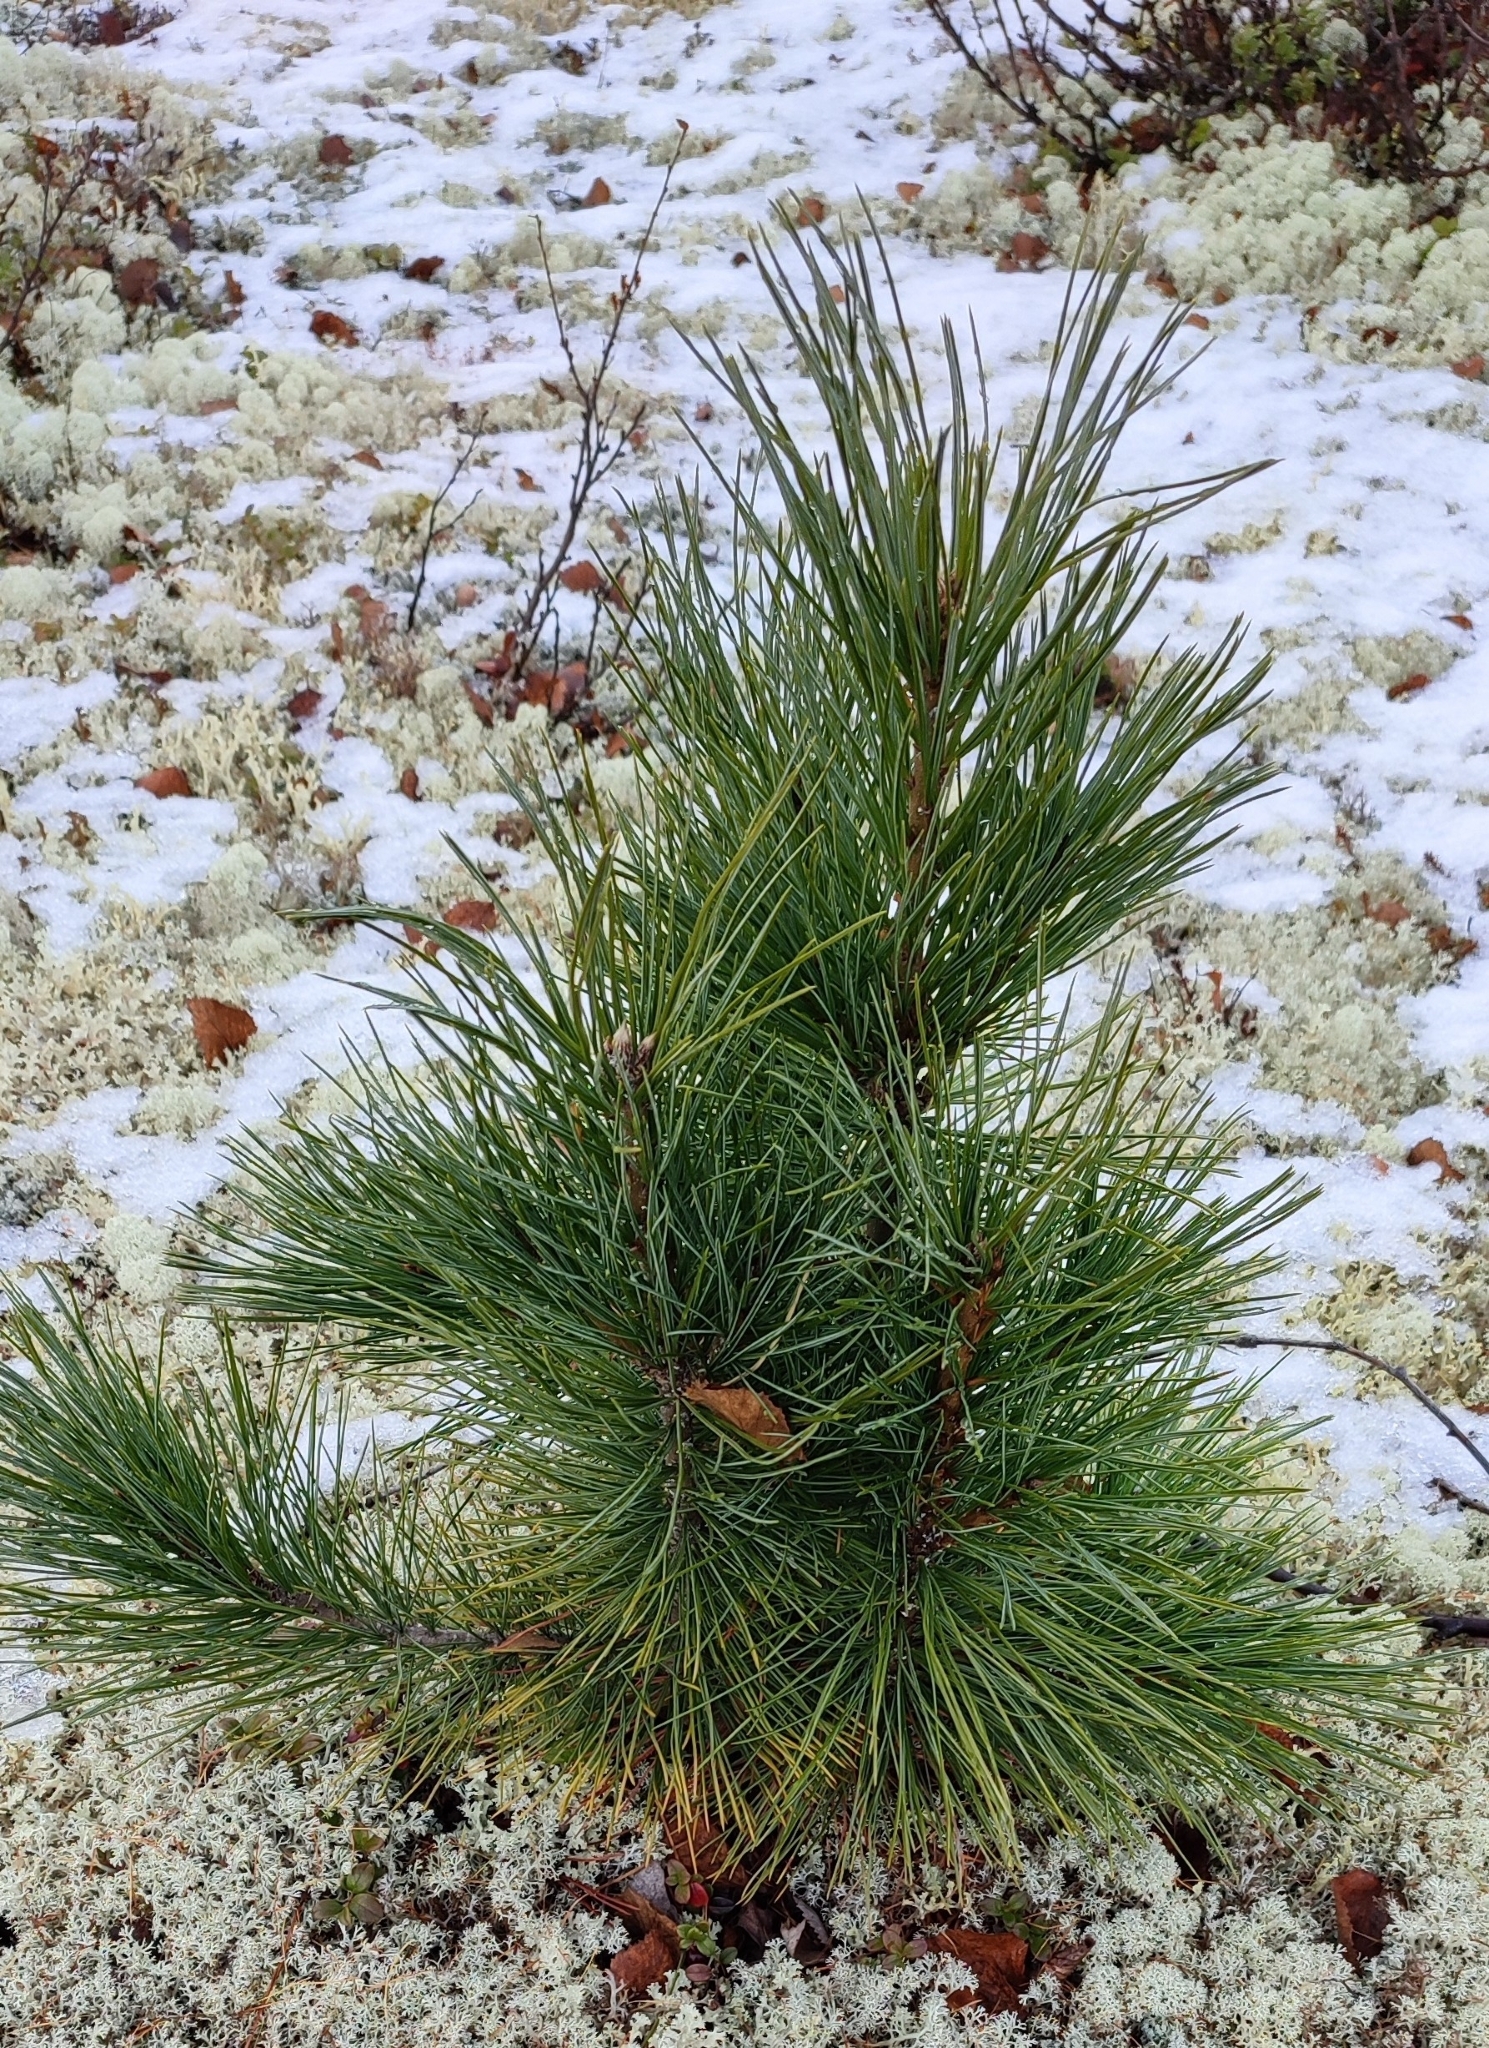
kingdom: Plantae
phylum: Tracheophyta
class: Pinopsida
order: Pinales
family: Pinaceae
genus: Pinus
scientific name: Pinus sibirica
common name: Siberian pine
